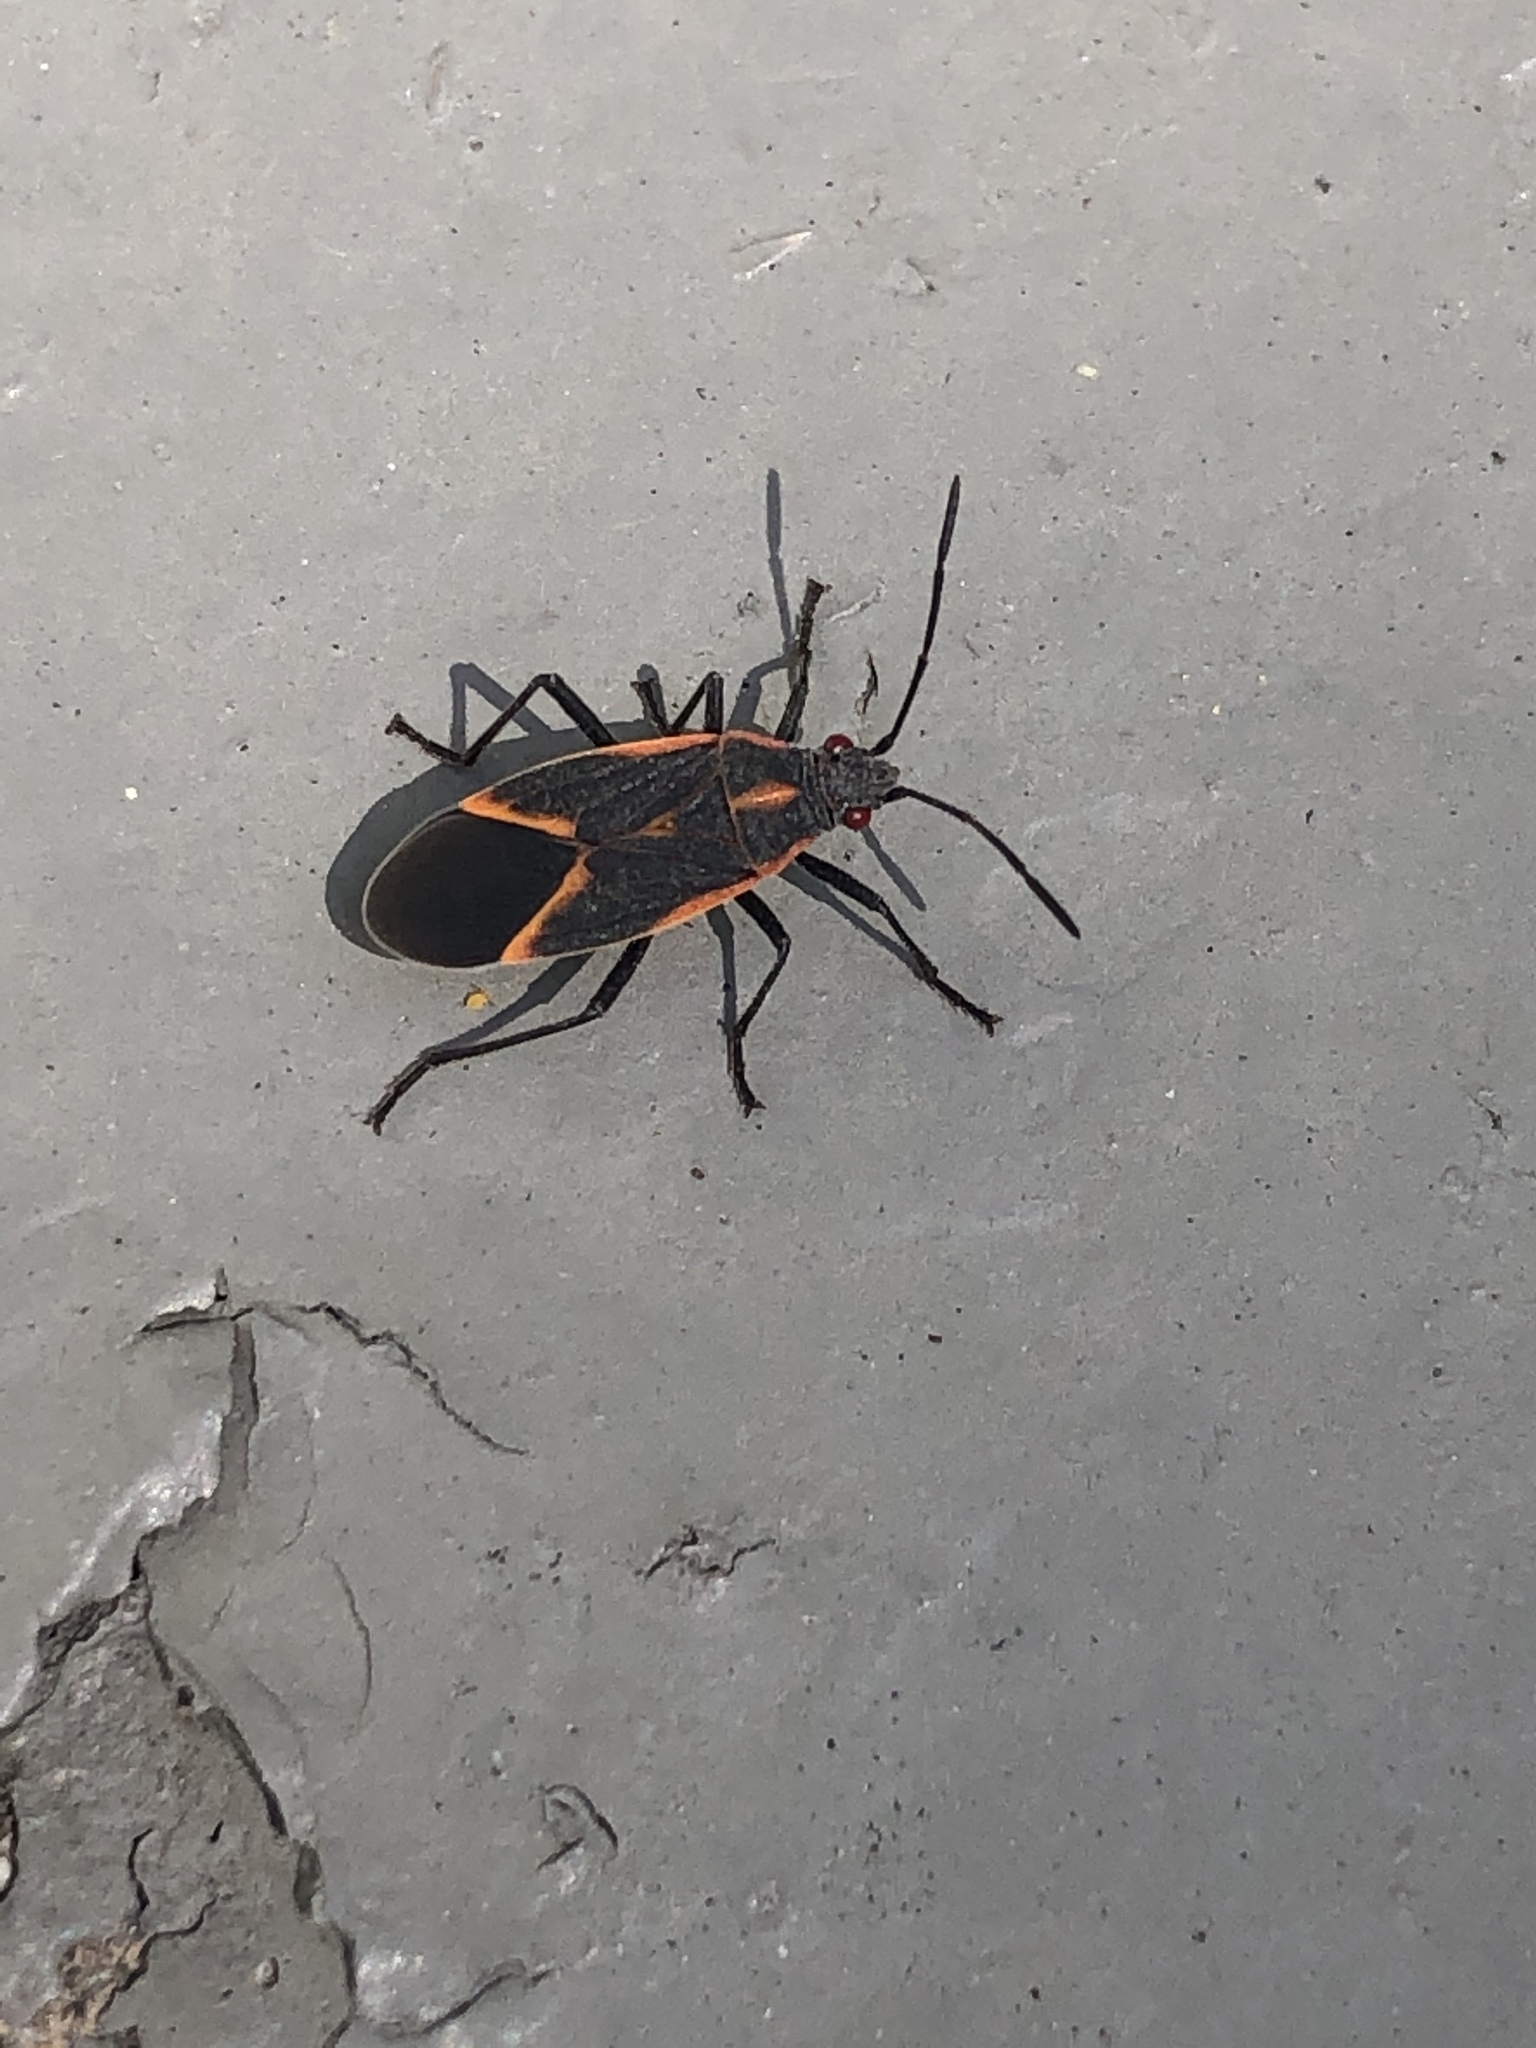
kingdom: Animalia
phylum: Arthropoda
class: Insecta
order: Hemiptera
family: Rhopalidae
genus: Boisea
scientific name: Boisea trivittata
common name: Boxelder bug
